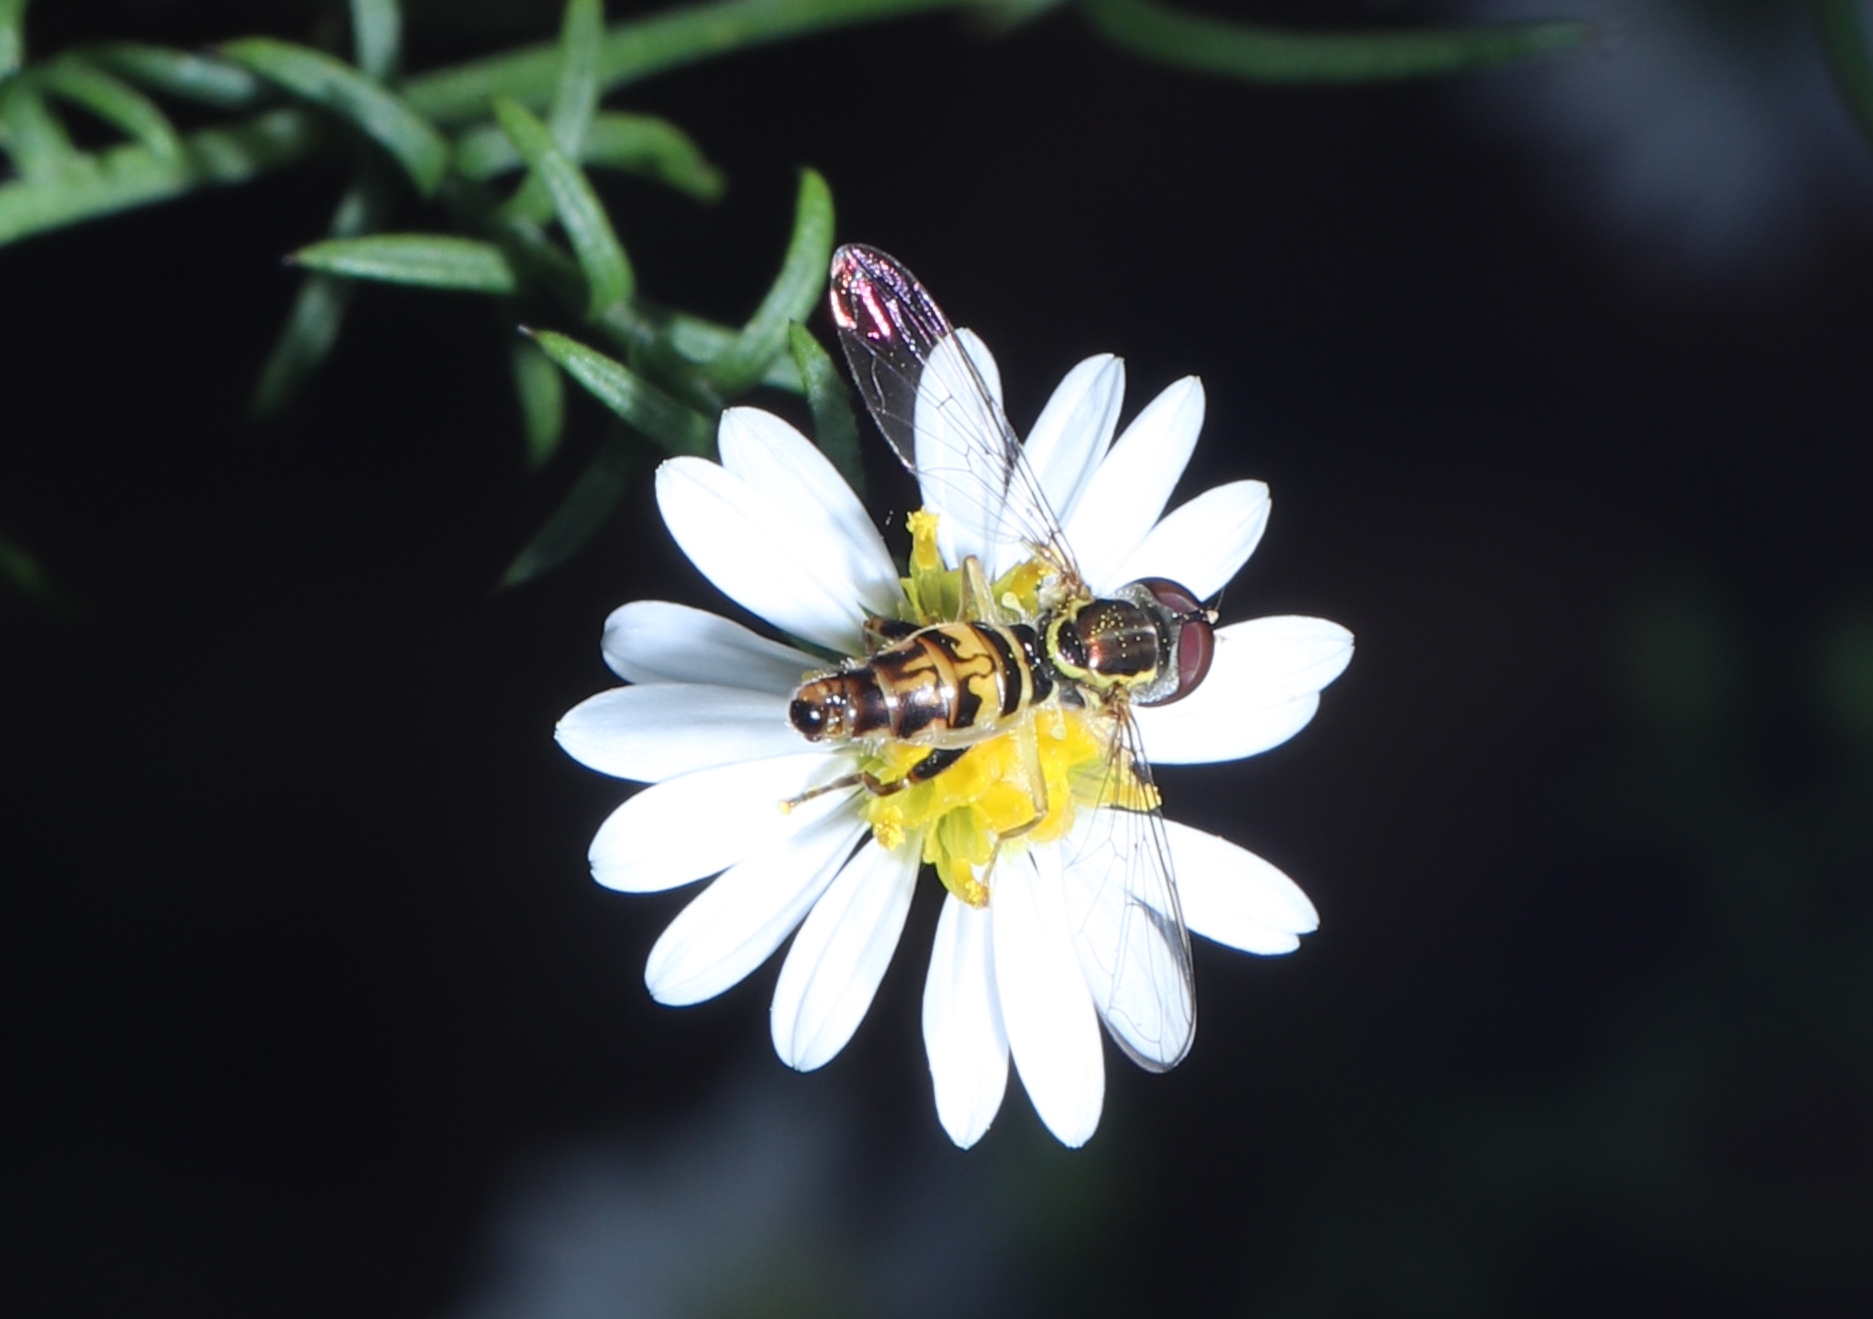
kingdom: Animalia
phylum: Arthropoda
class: Insecta
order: Diptera
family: Syrphidae
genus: Toxomerus
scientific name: Toxomerus geminatus
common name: Eastern calligrapher
